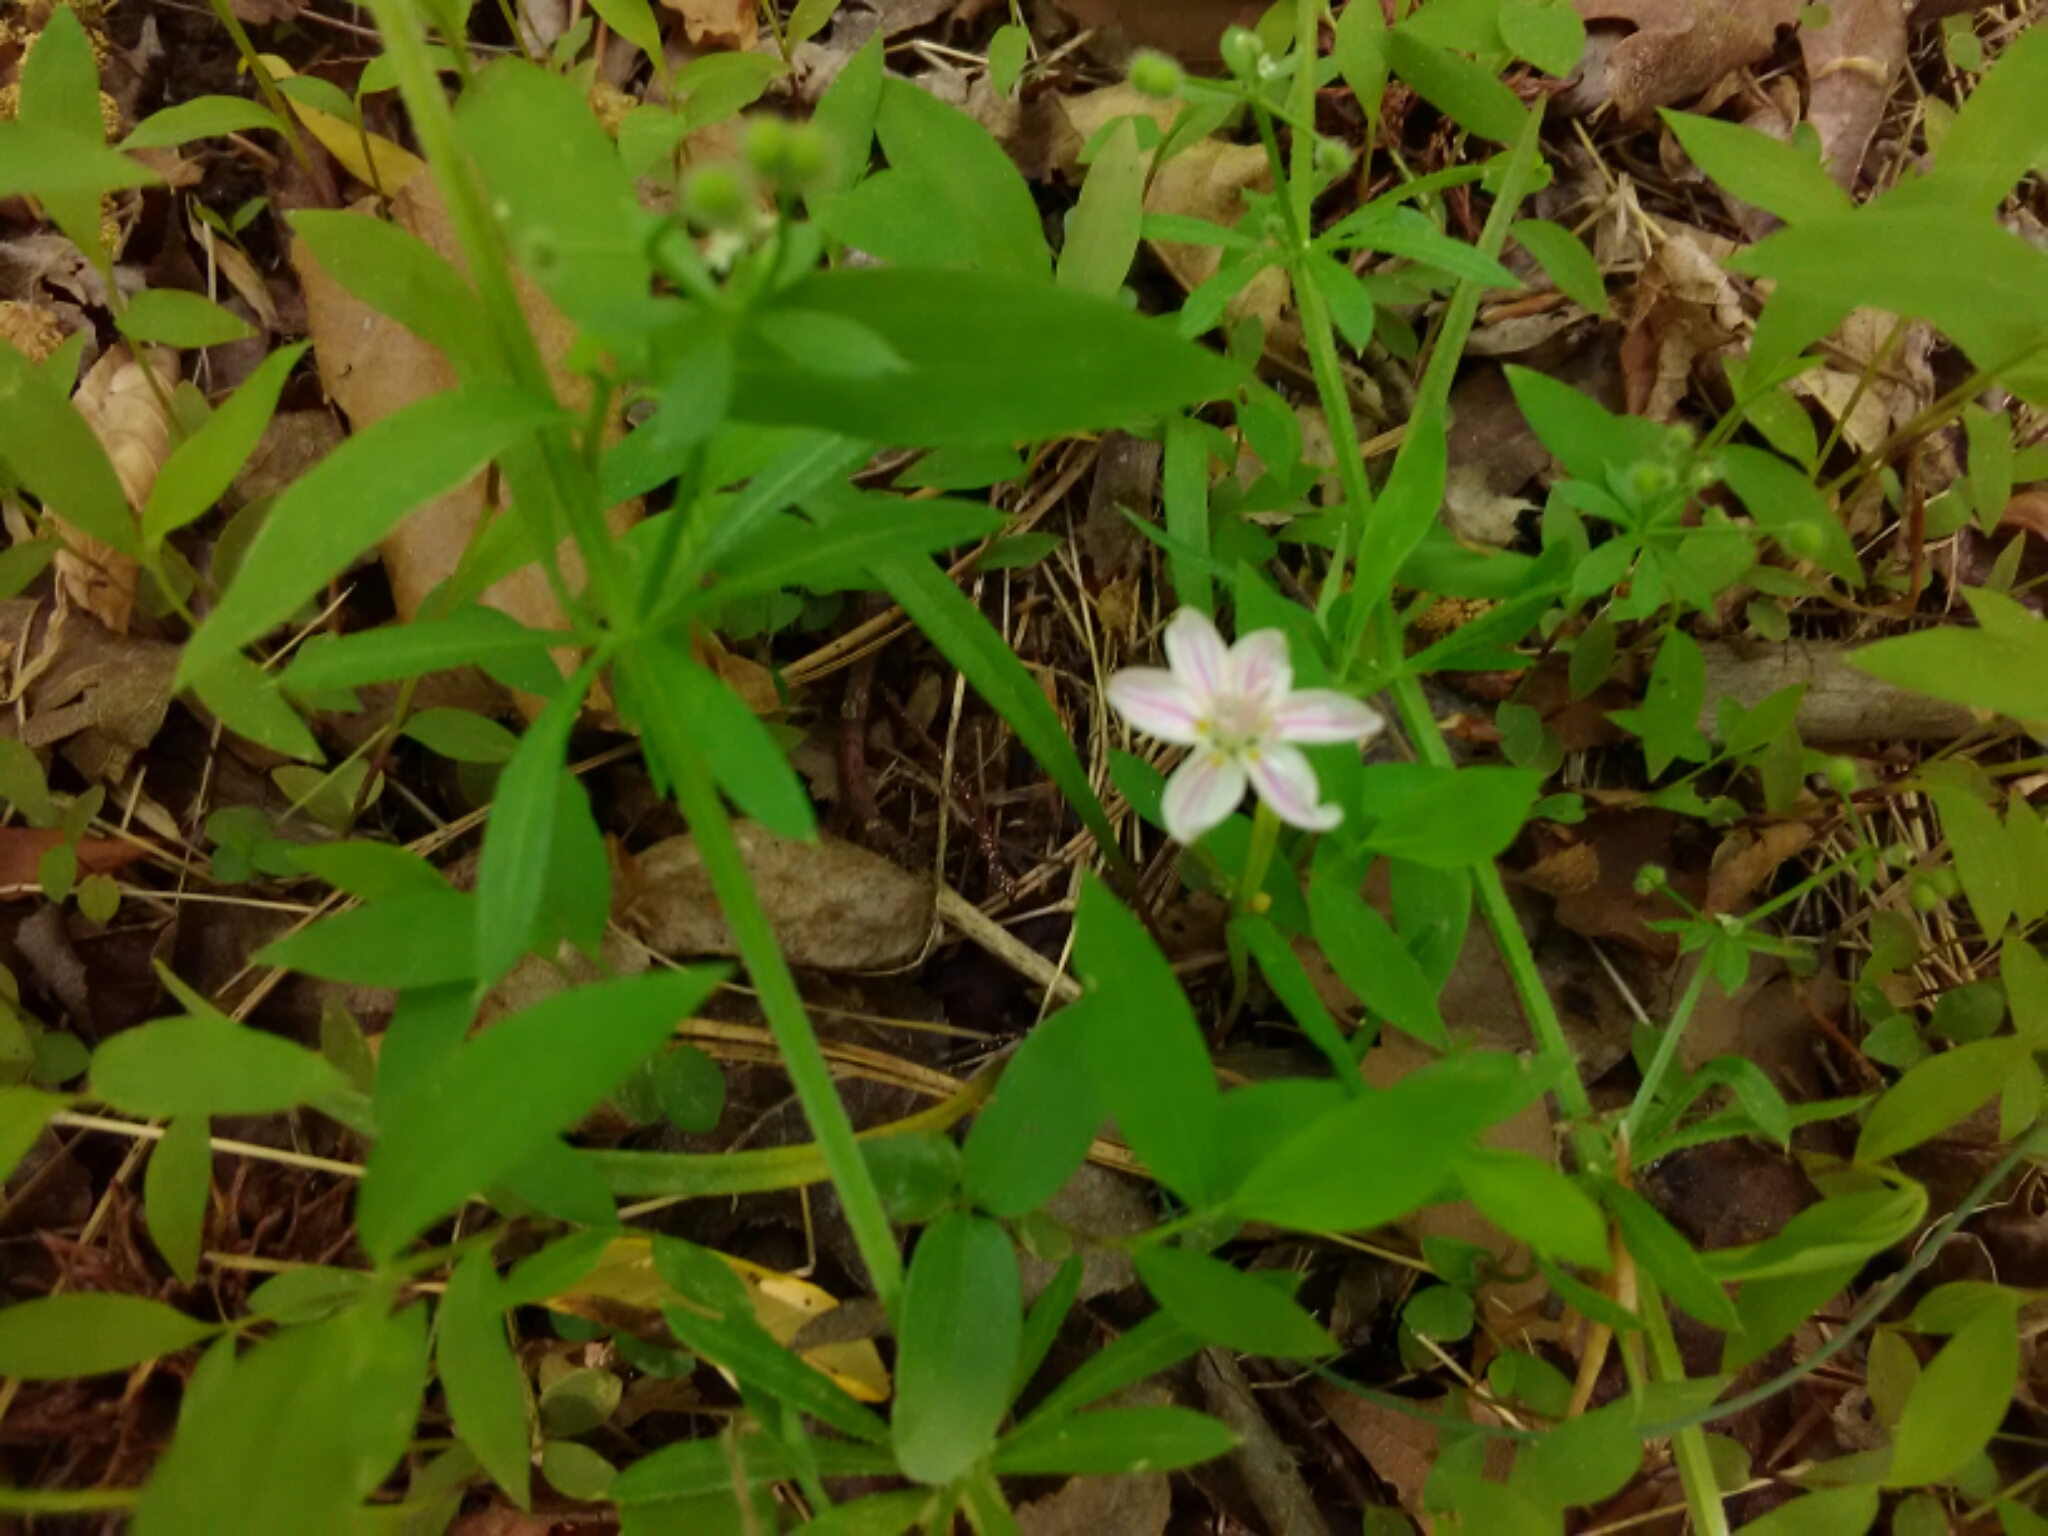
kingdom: Plantae
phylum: Tracheophyta
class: Magnoliopsida
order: Caryophyllales
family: Montiaceae
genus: Claytonia
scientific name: Claytonia virginica
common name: Virginia springbeauty
